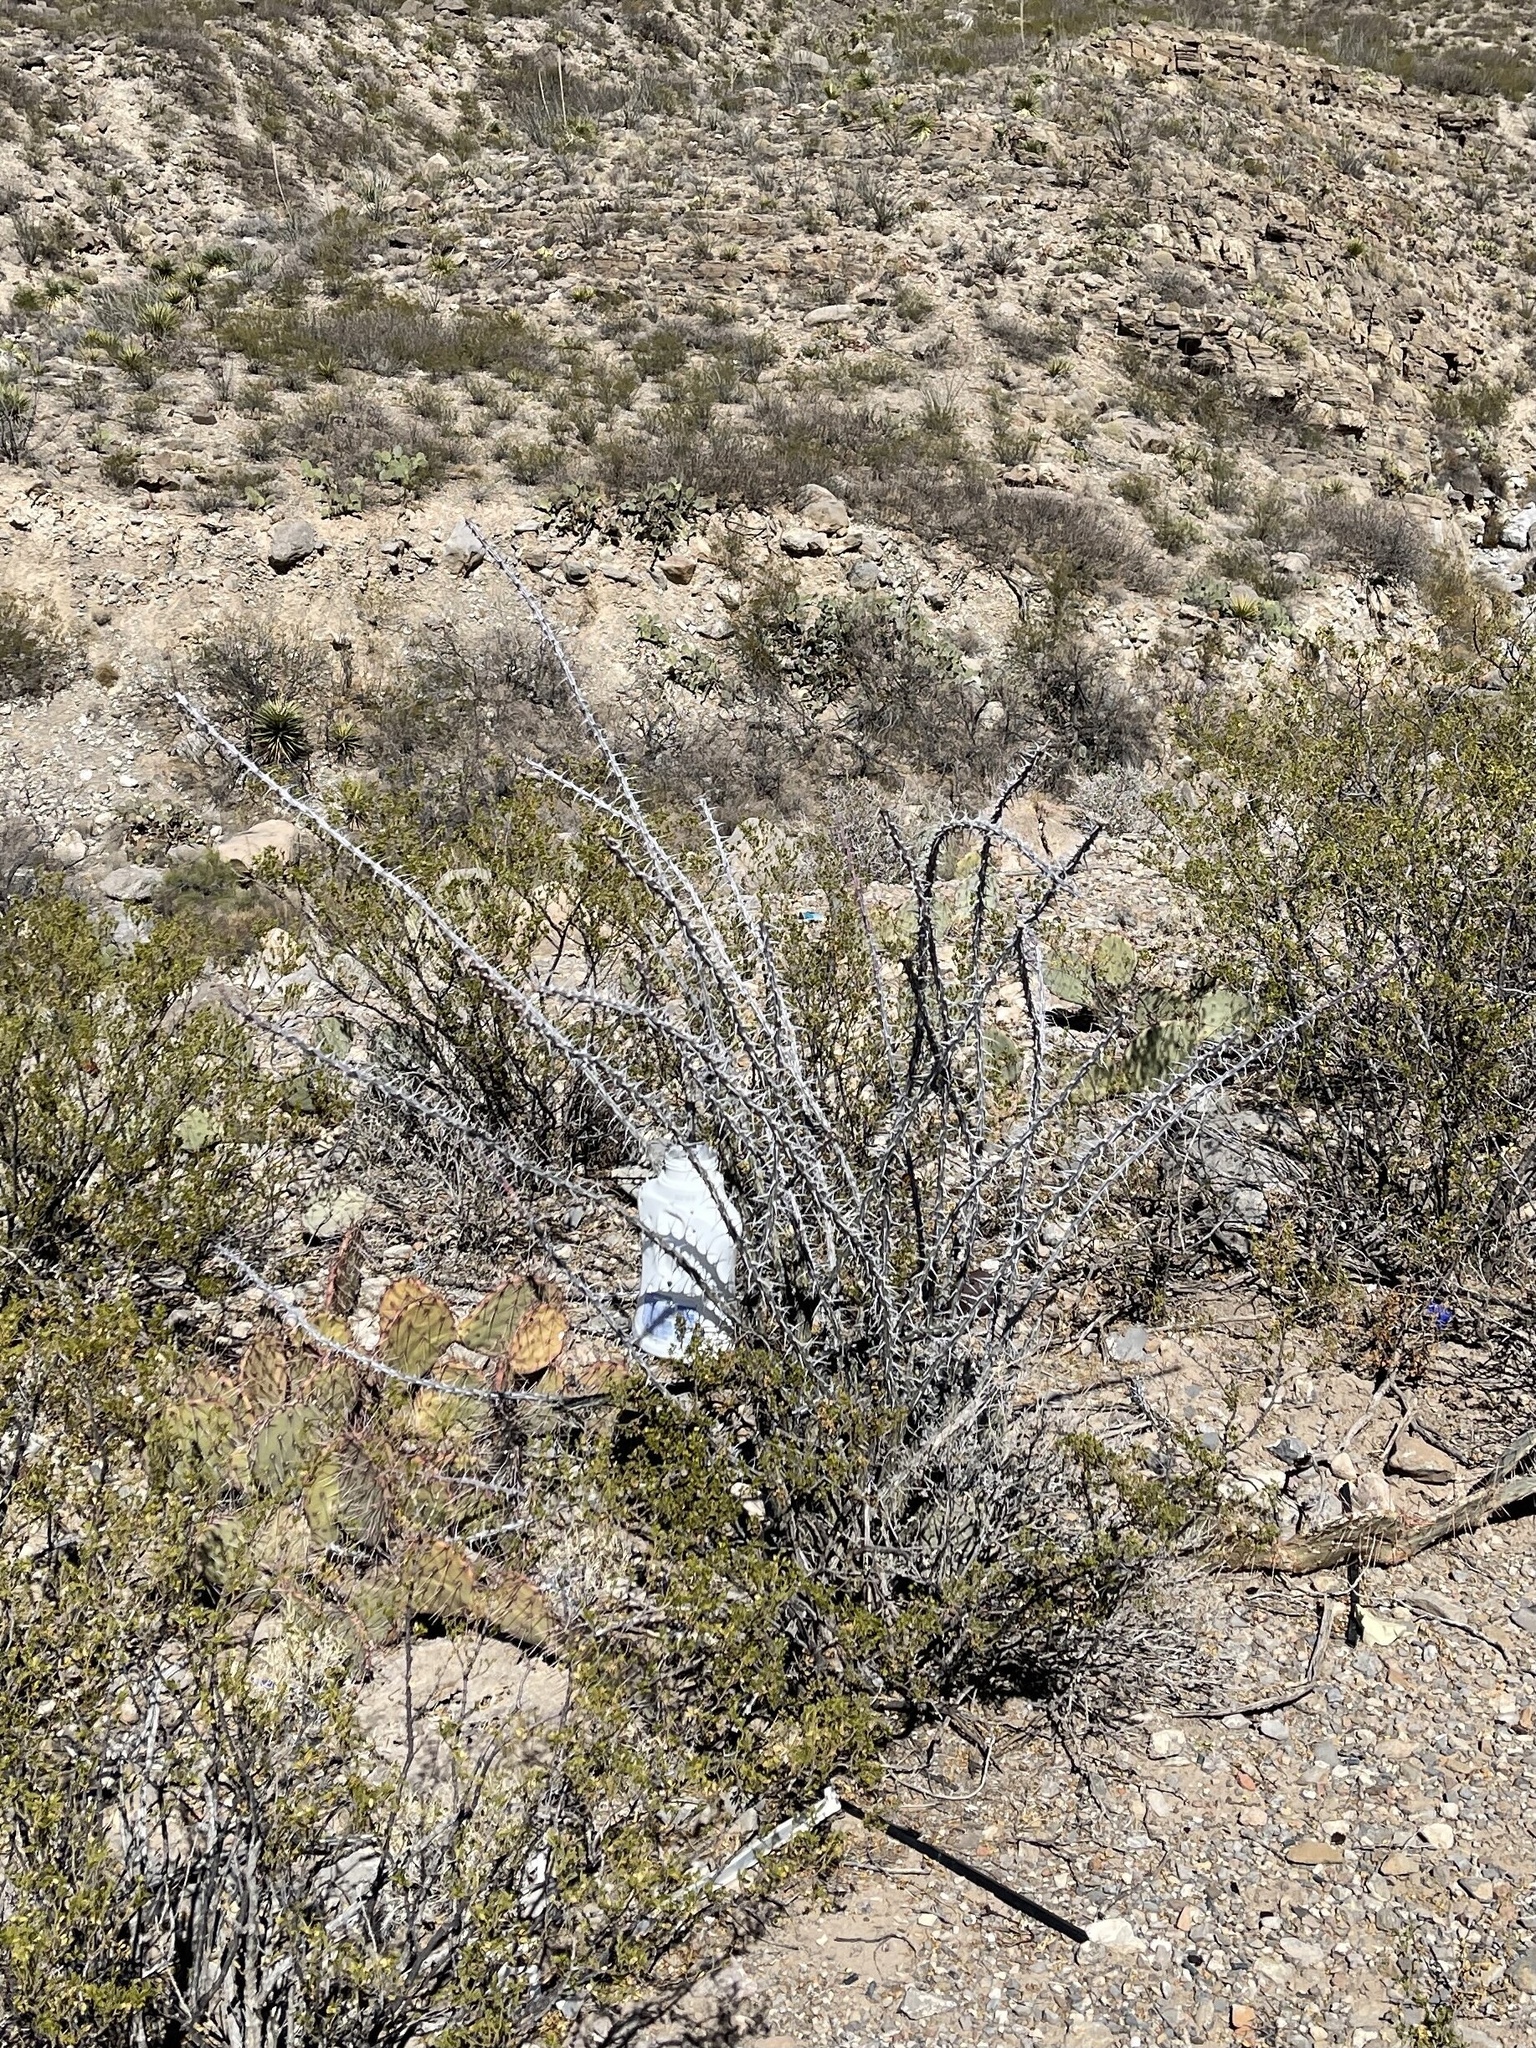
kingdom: Plantae
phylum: Tracheophyta
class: Magnoliopsida
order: Ericales
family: Fouquieriaceae
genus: Fouquieria
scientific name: Fouquieria splendens
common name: Vine-cactus
